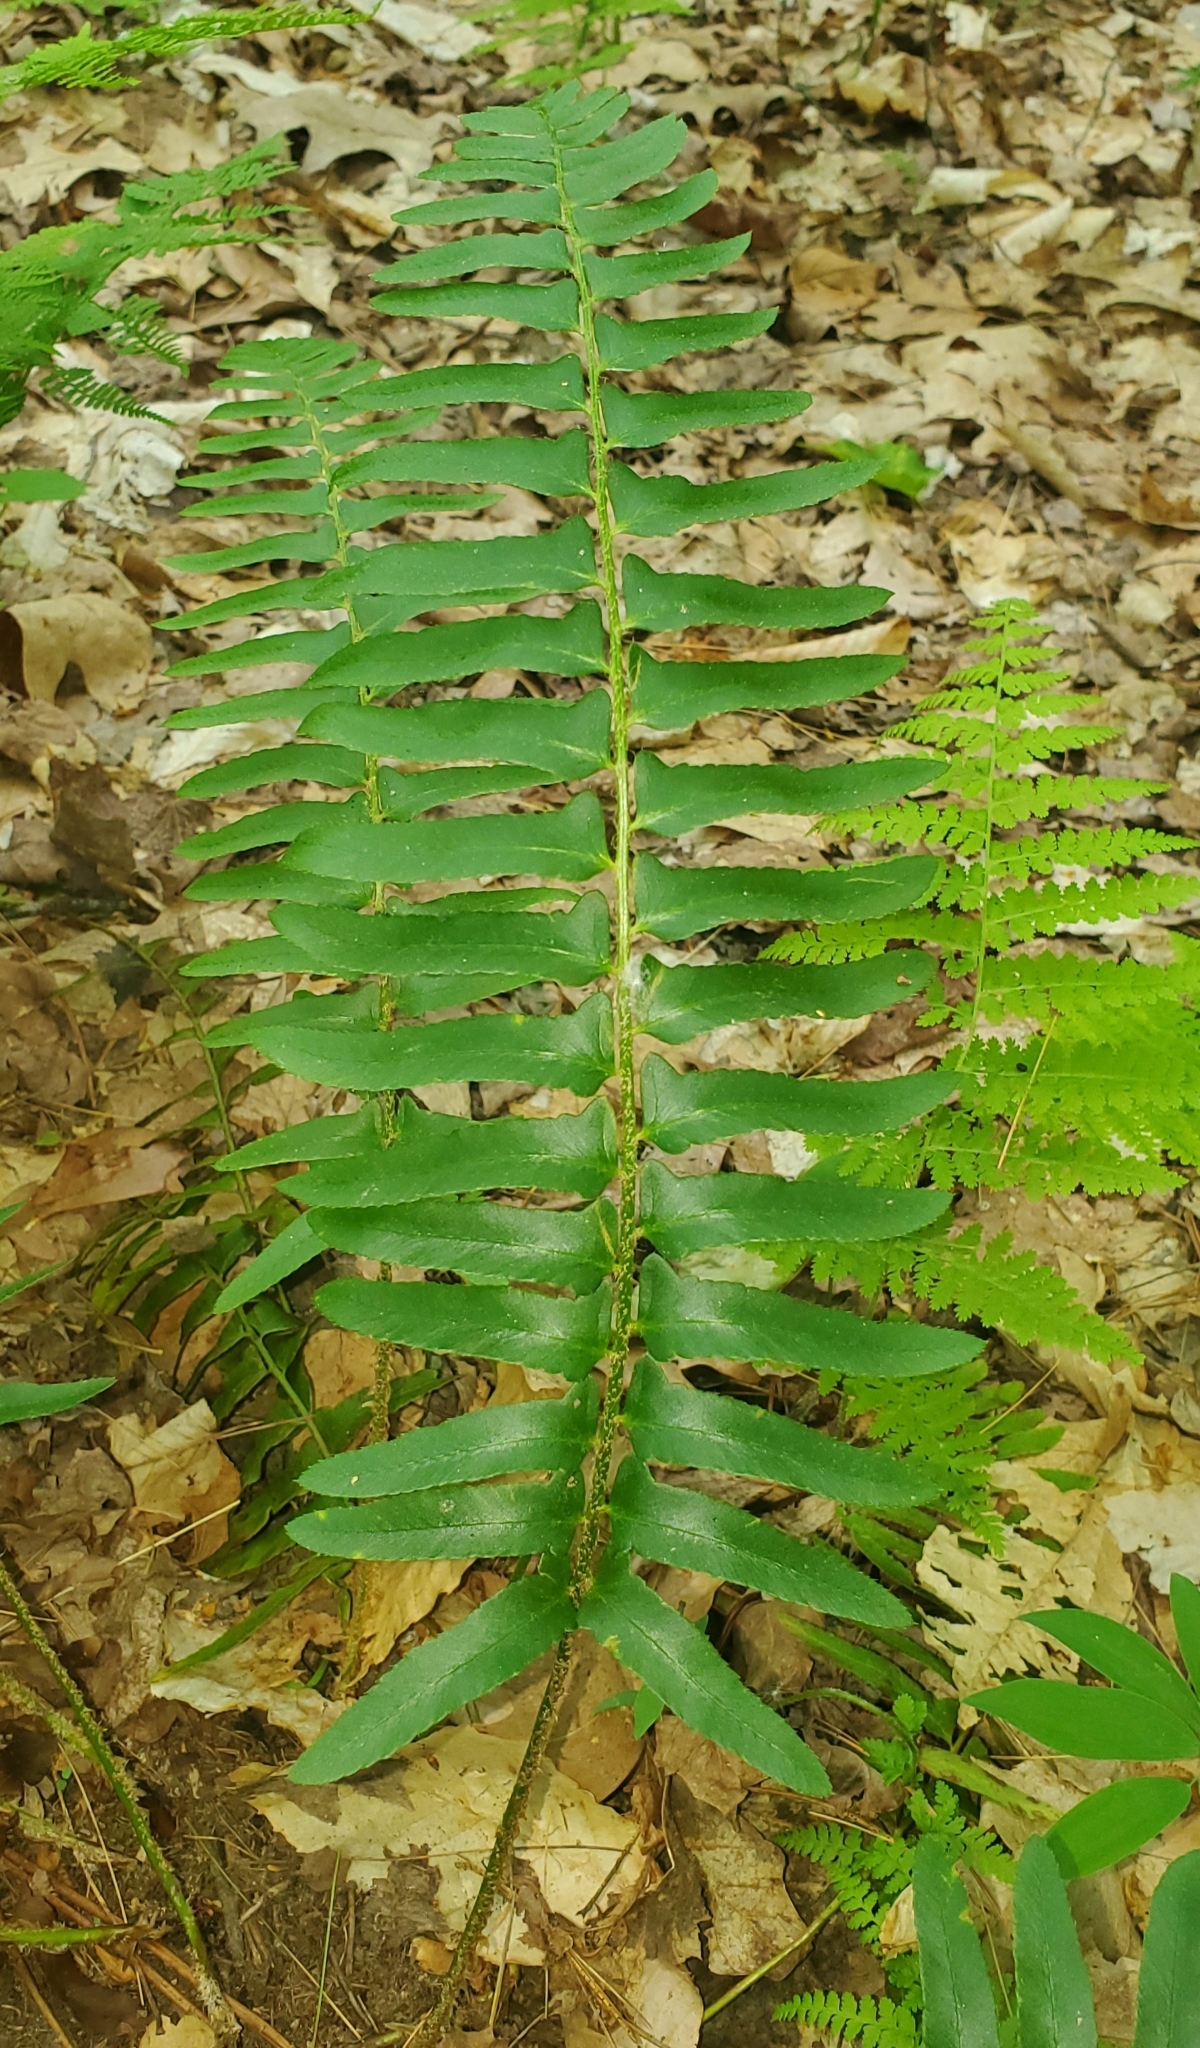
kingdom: Plantae
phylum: Tracheophyta
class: Polypodiopsida
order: Polypodiales
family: Dryopteridaceae
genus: Polystichum
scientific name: Polystichum acrostichoides
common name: Christmas fern
